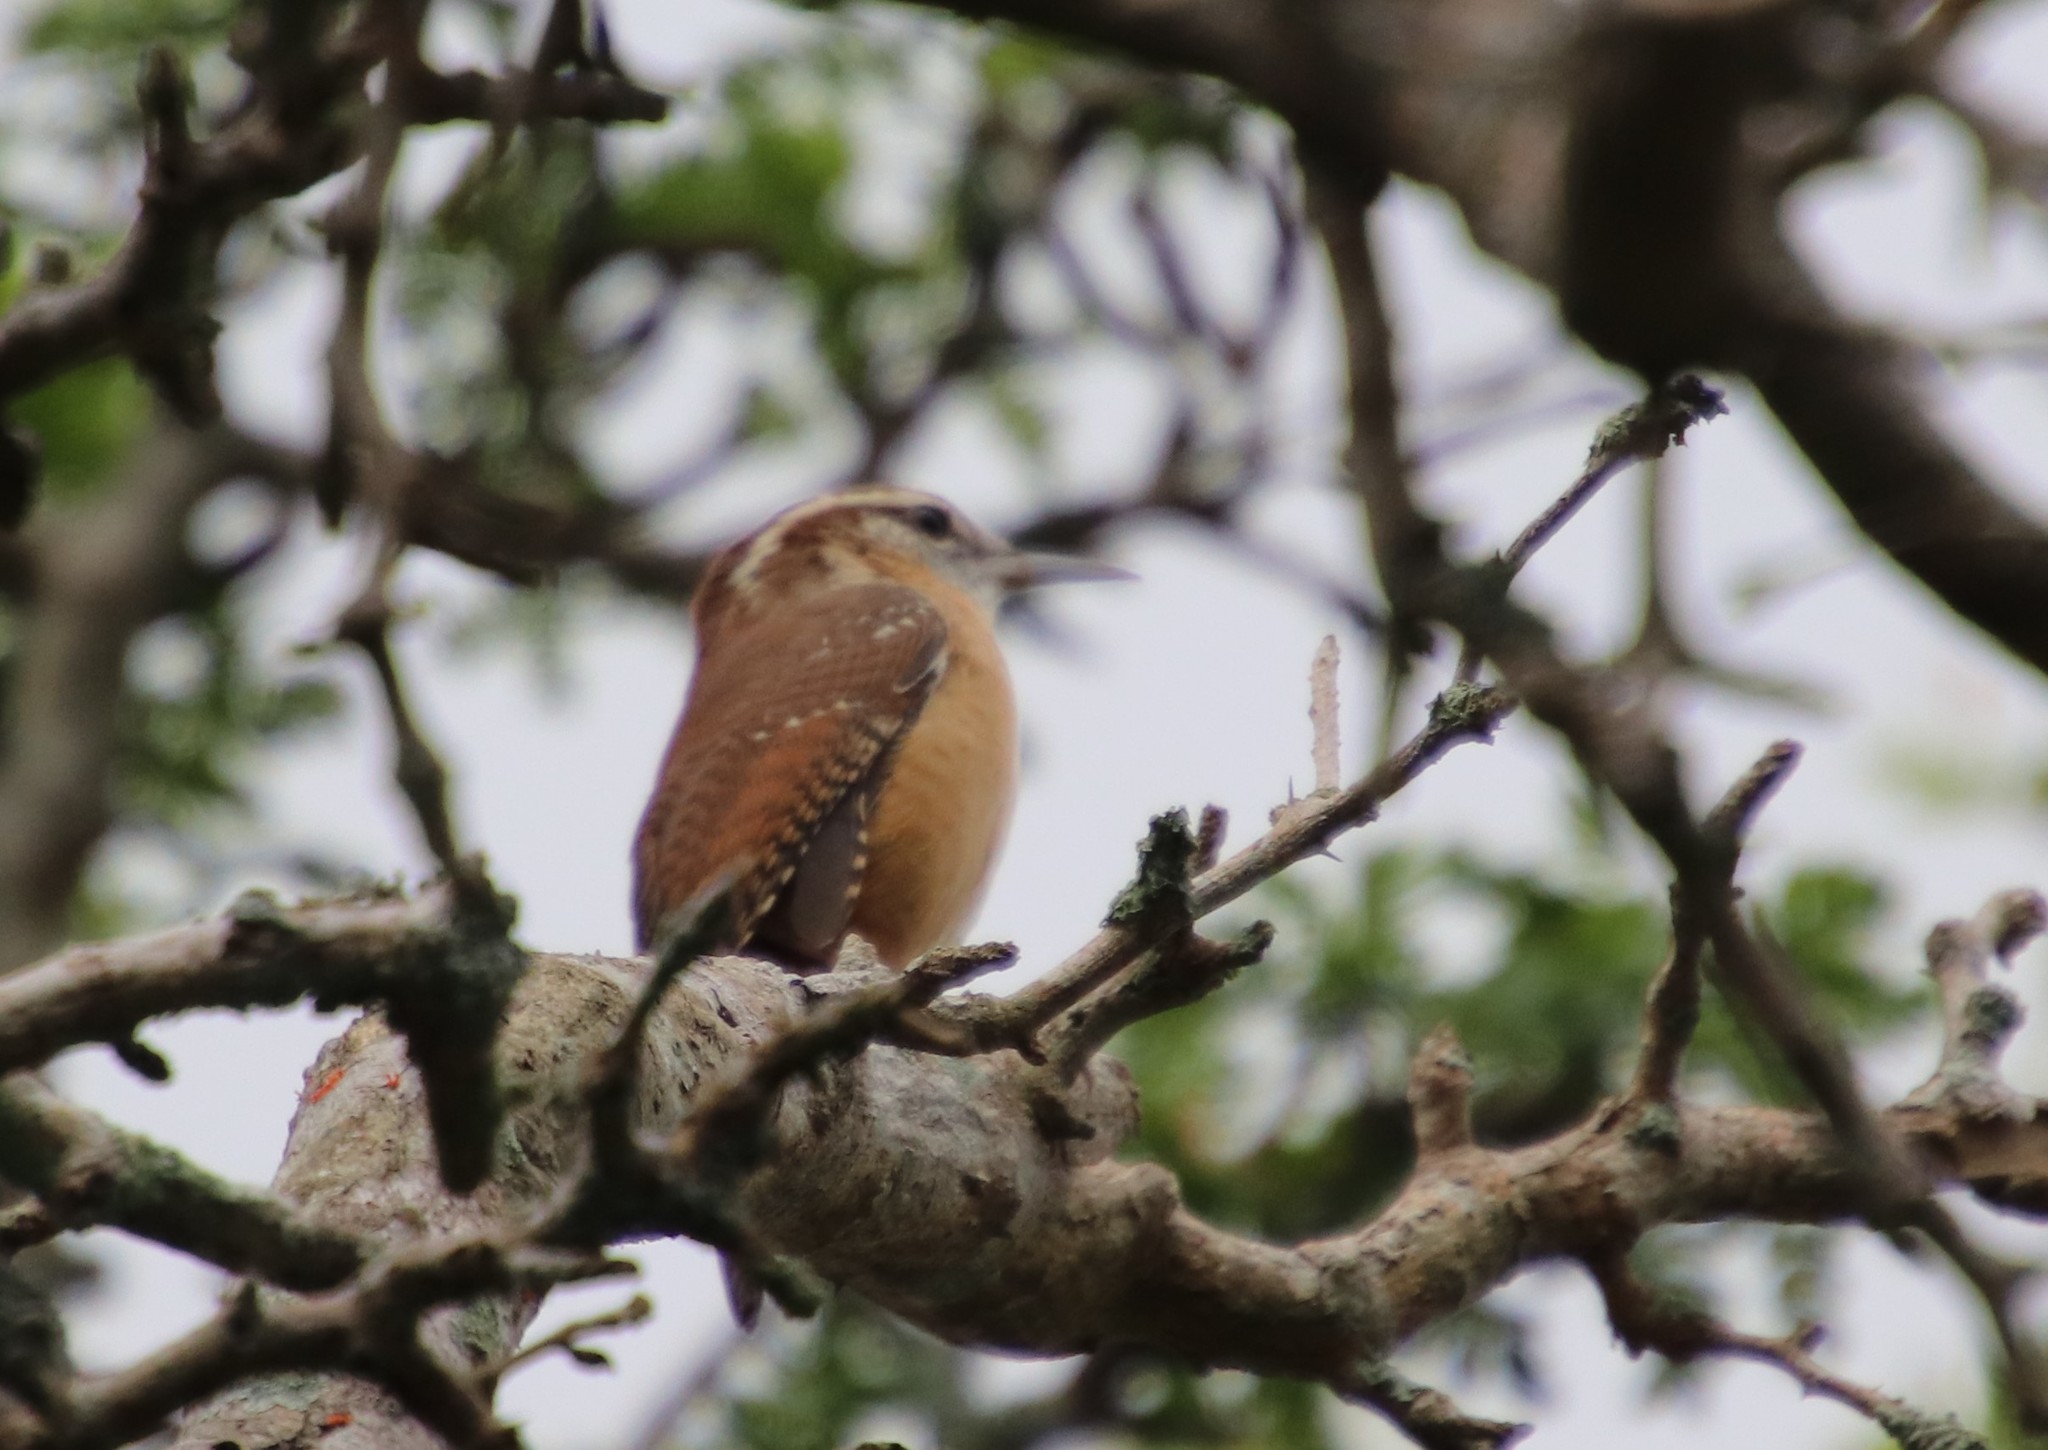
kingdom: Animalia
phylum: Chordata
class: Aves
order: Passeriformes
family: Troglodytidae
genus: Thryothorus
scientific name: Thryothorus ludovicianus
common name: Carolina wren
